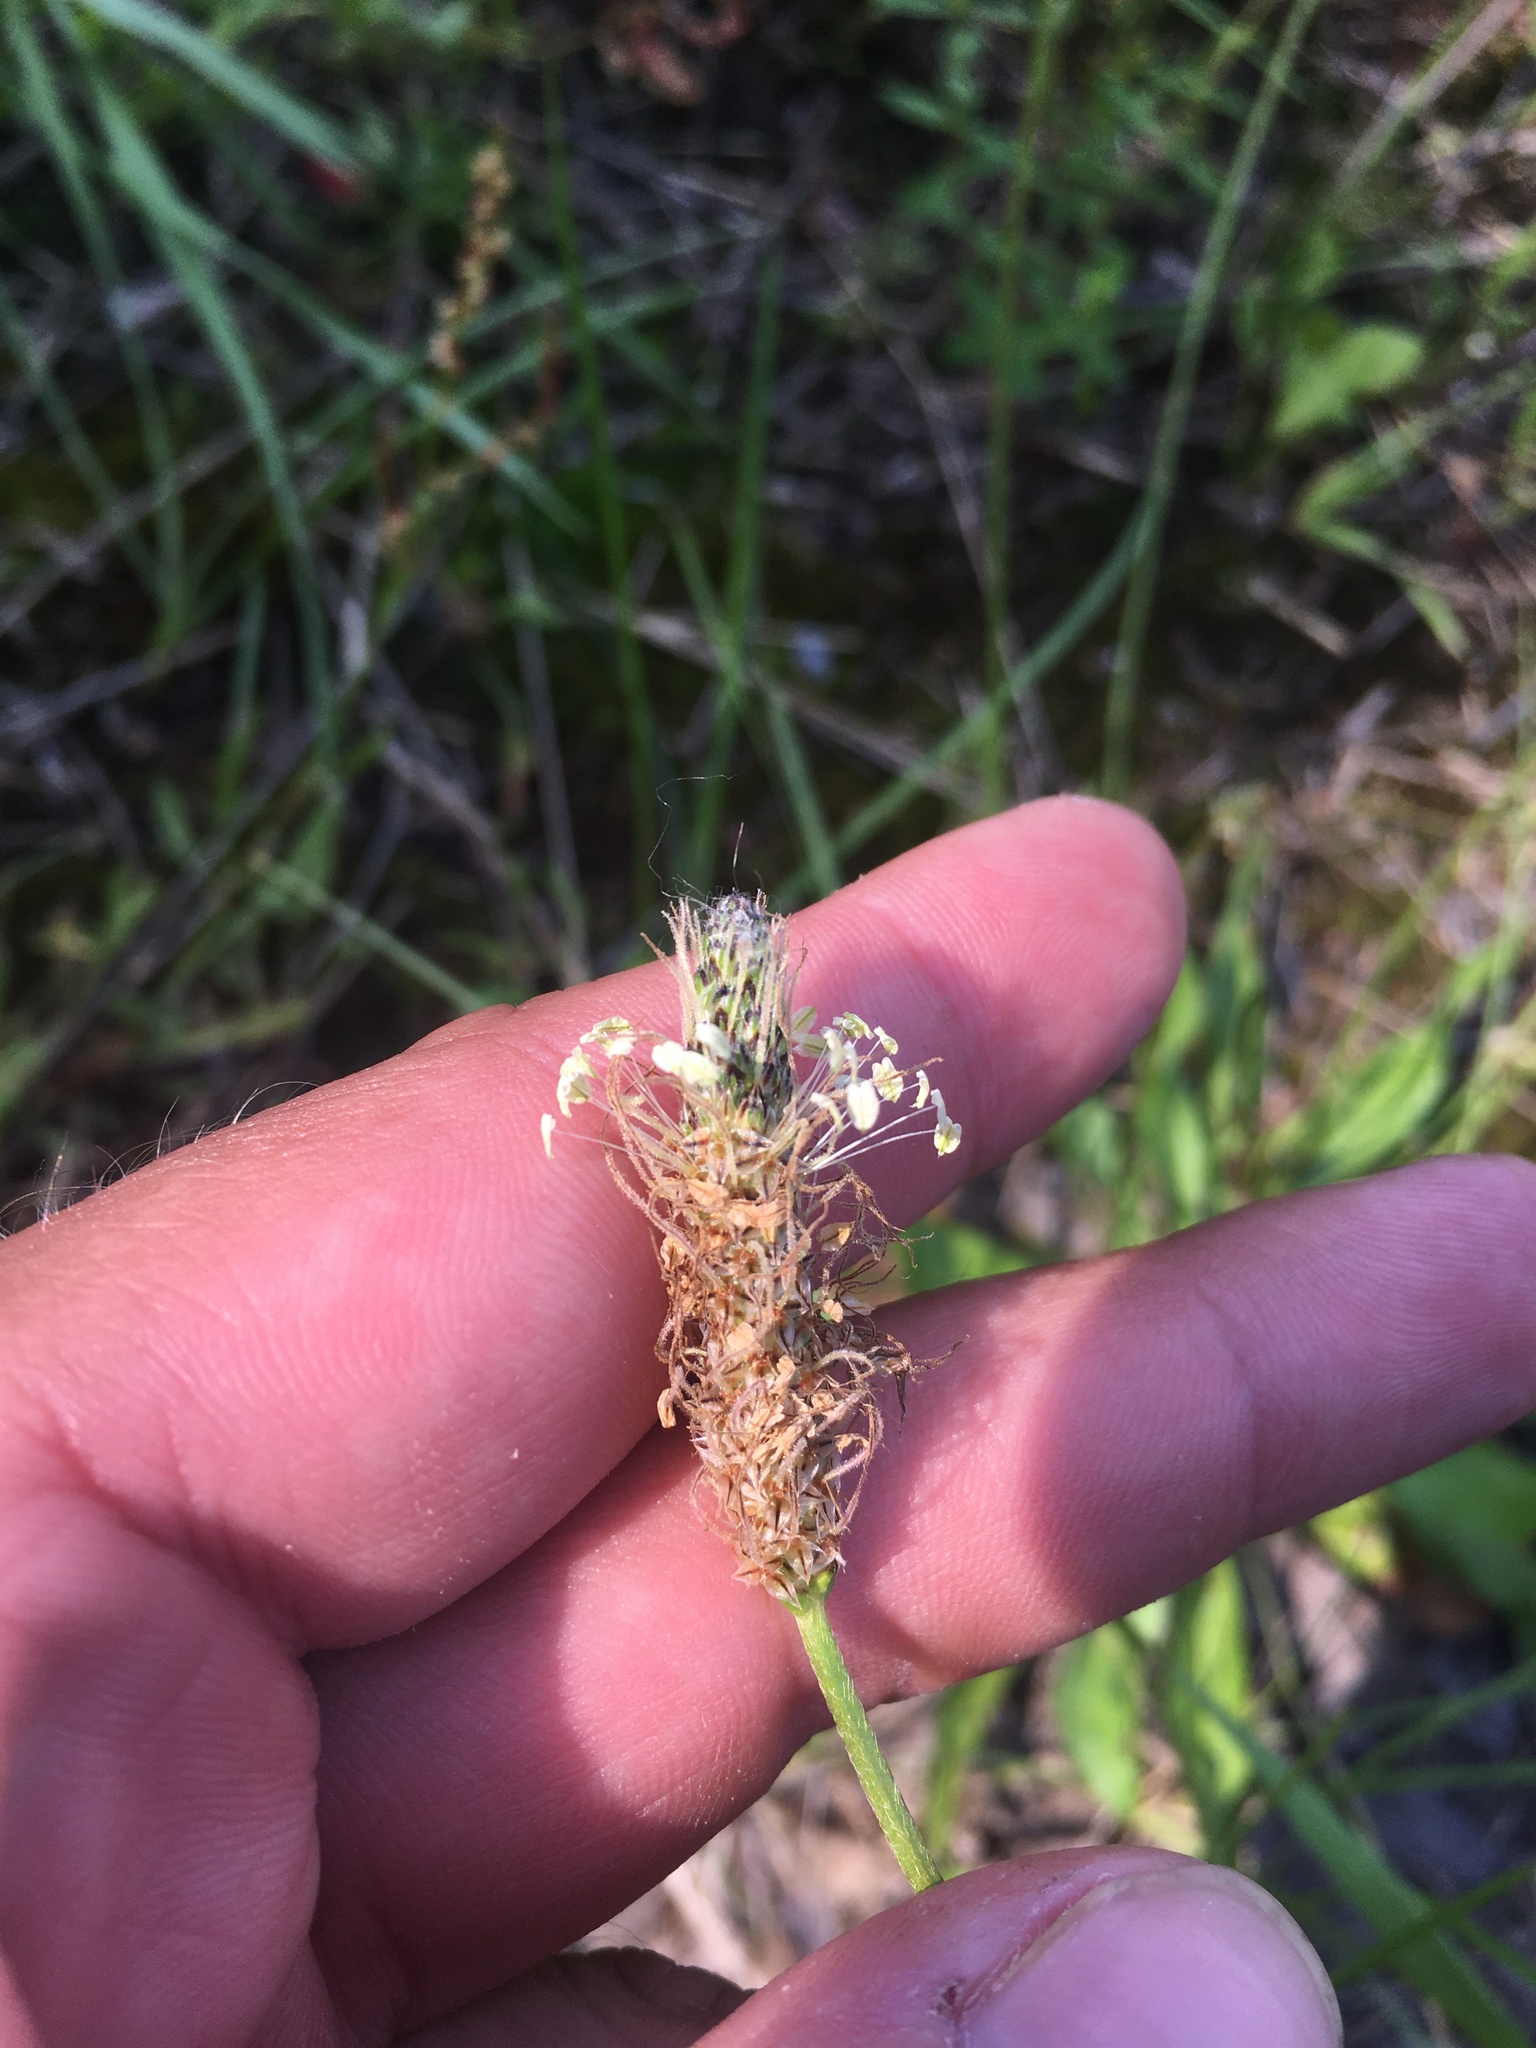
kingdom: Plantae
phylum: Tracheophyta
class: Magnoliopsida
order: Lamiales
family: Plantaginaceae
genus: Plantago
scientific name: Plantago lanceolata
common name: Ribwort plantain
